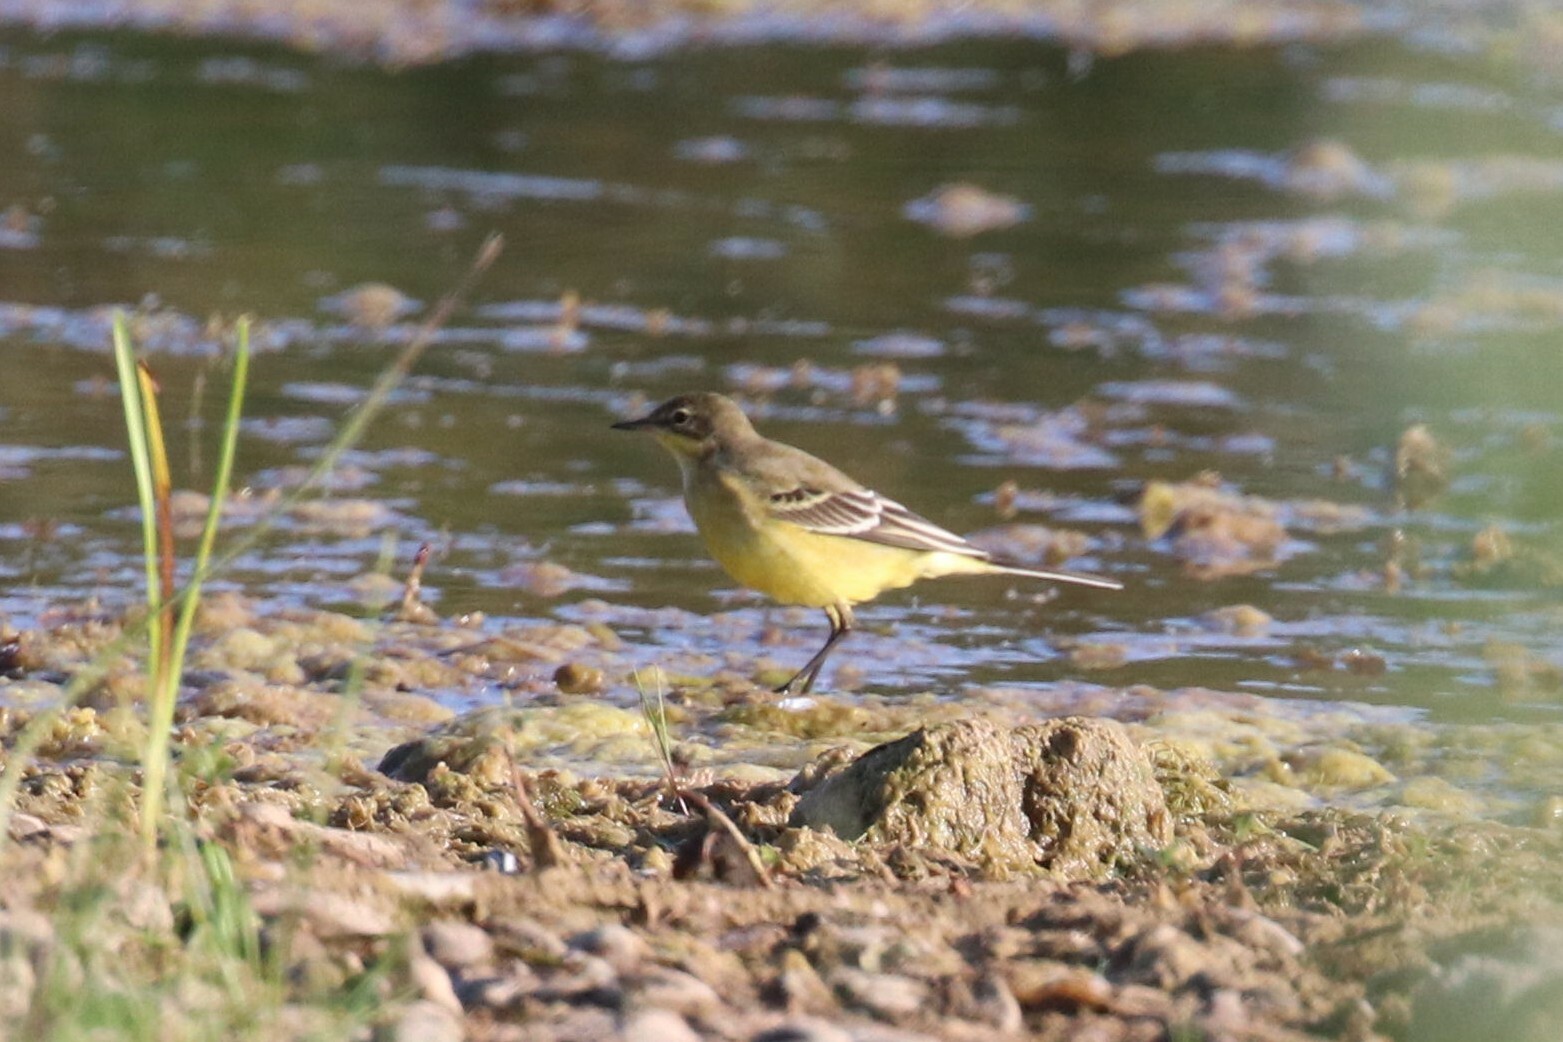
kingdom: Animalia
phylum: Chordata
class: Aves
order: Passeriformes
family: Motacillidae
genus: Motacilla
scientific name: Motacilla flava
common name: Western yellow wagtail
